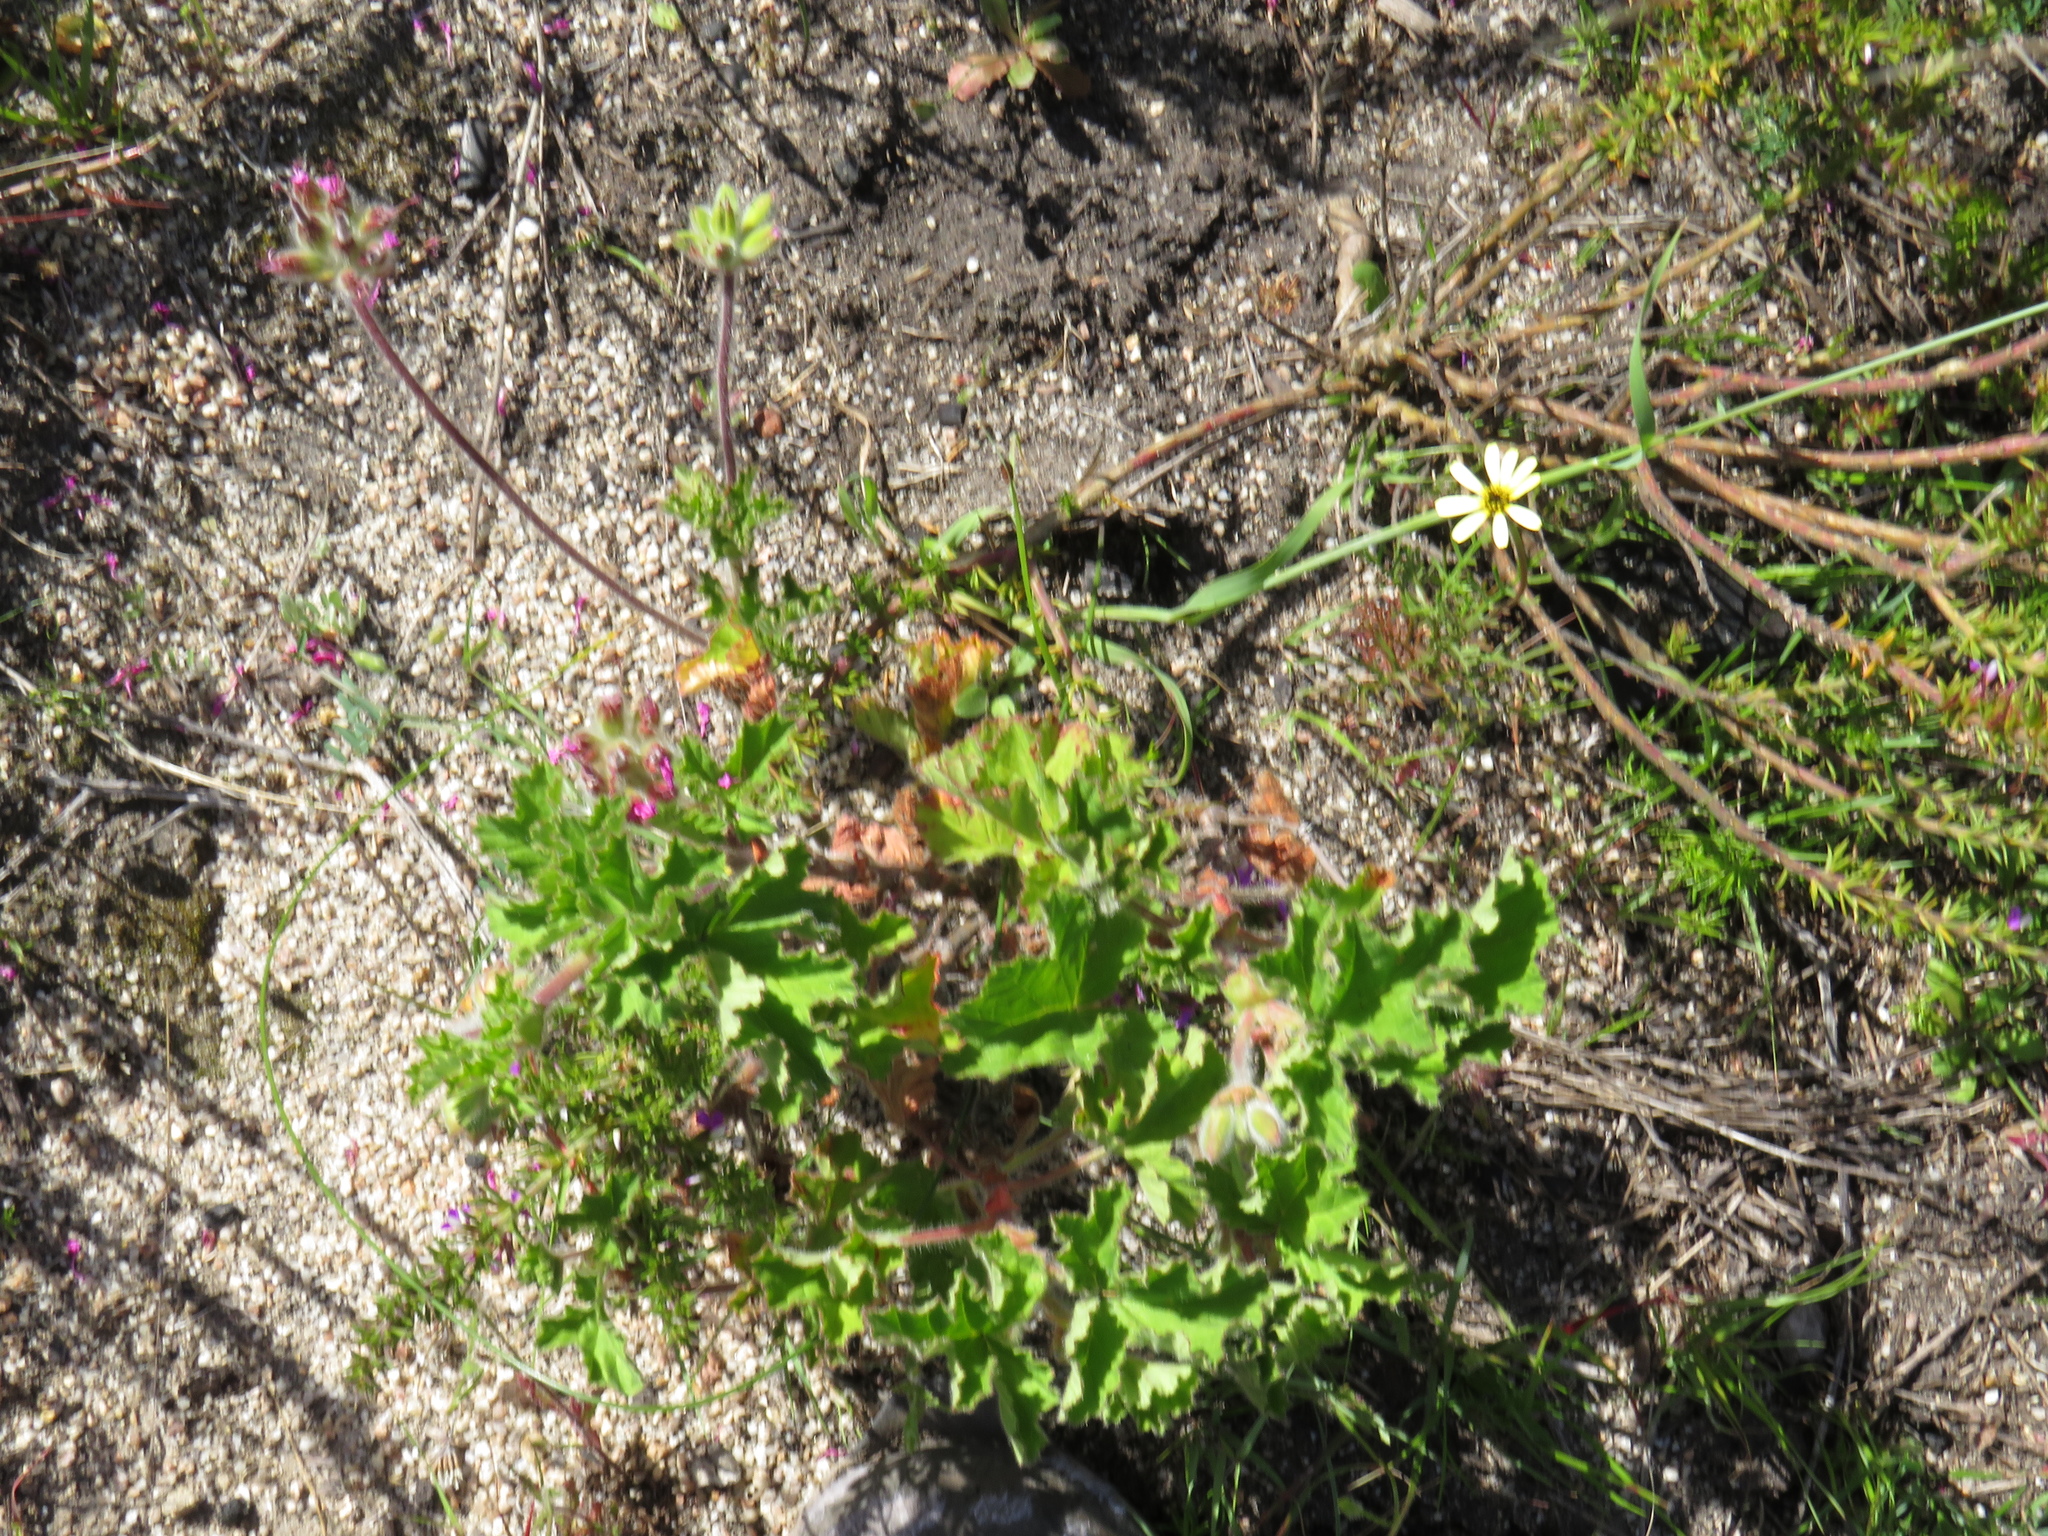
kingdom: Plantae
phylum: Tracheophyta
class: Magnoliopsida
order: Geraniales
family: Geraniaceae
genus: Pelargonium
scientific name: Pelargonium capitatum
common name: Rose scented geranium
